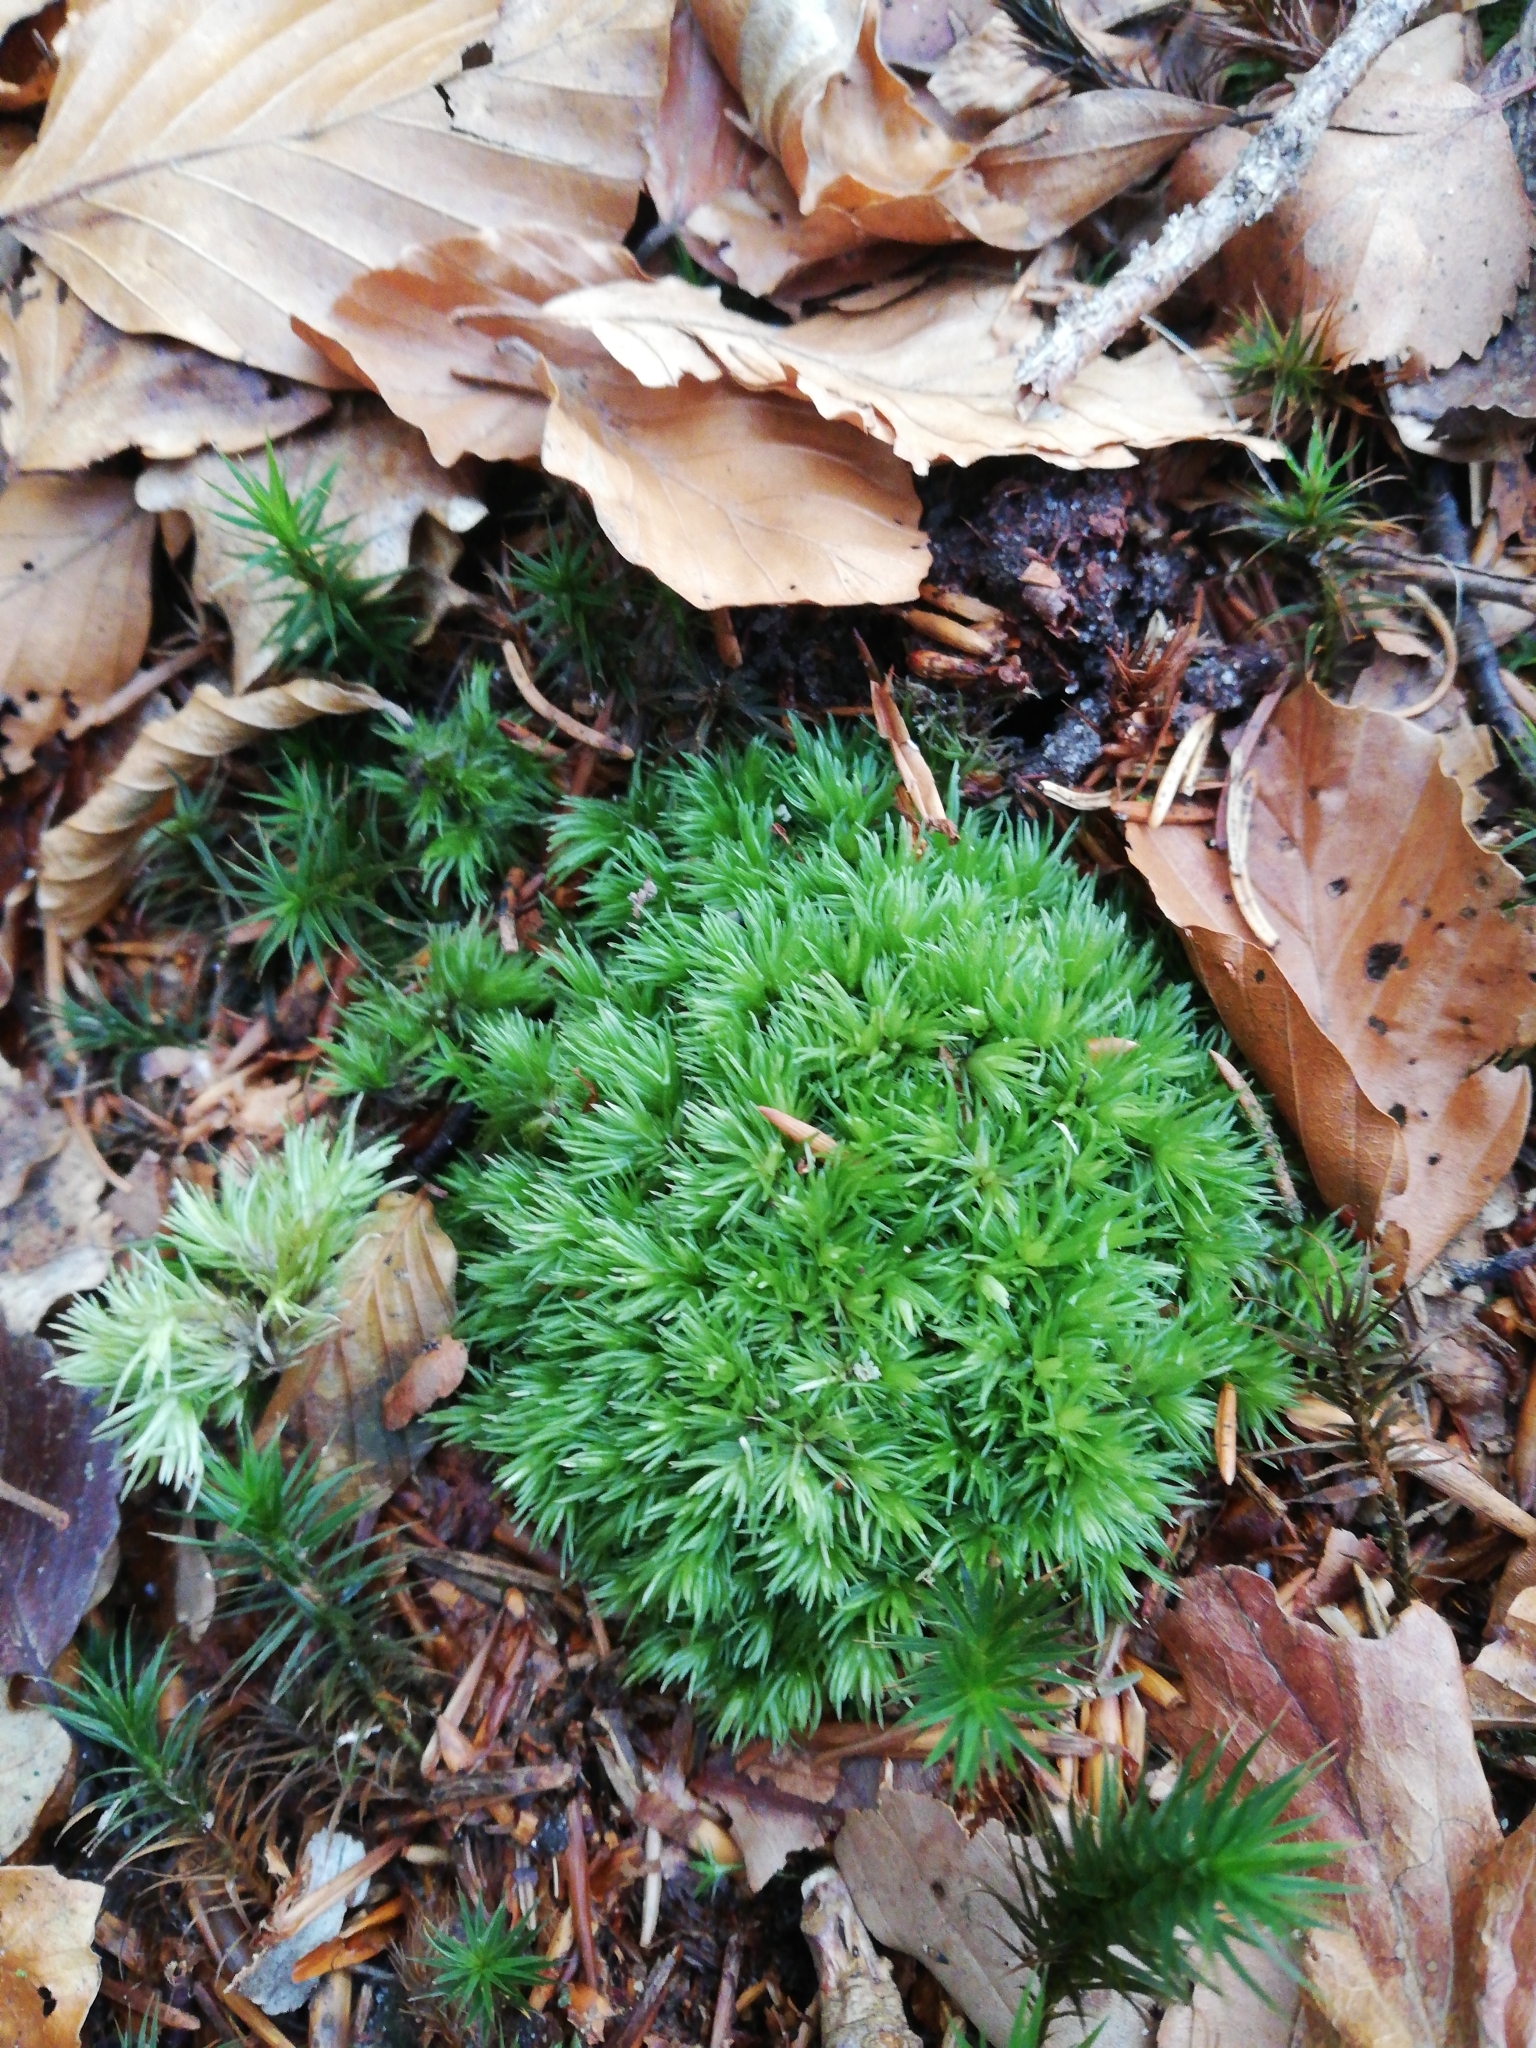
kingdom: Plantae
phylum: Bryophyta
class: Bryopsida
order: Dicranales
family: Leucobryaceae
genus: Leucobryum
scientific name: Leucobryum glaucum
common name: Large white-moss
